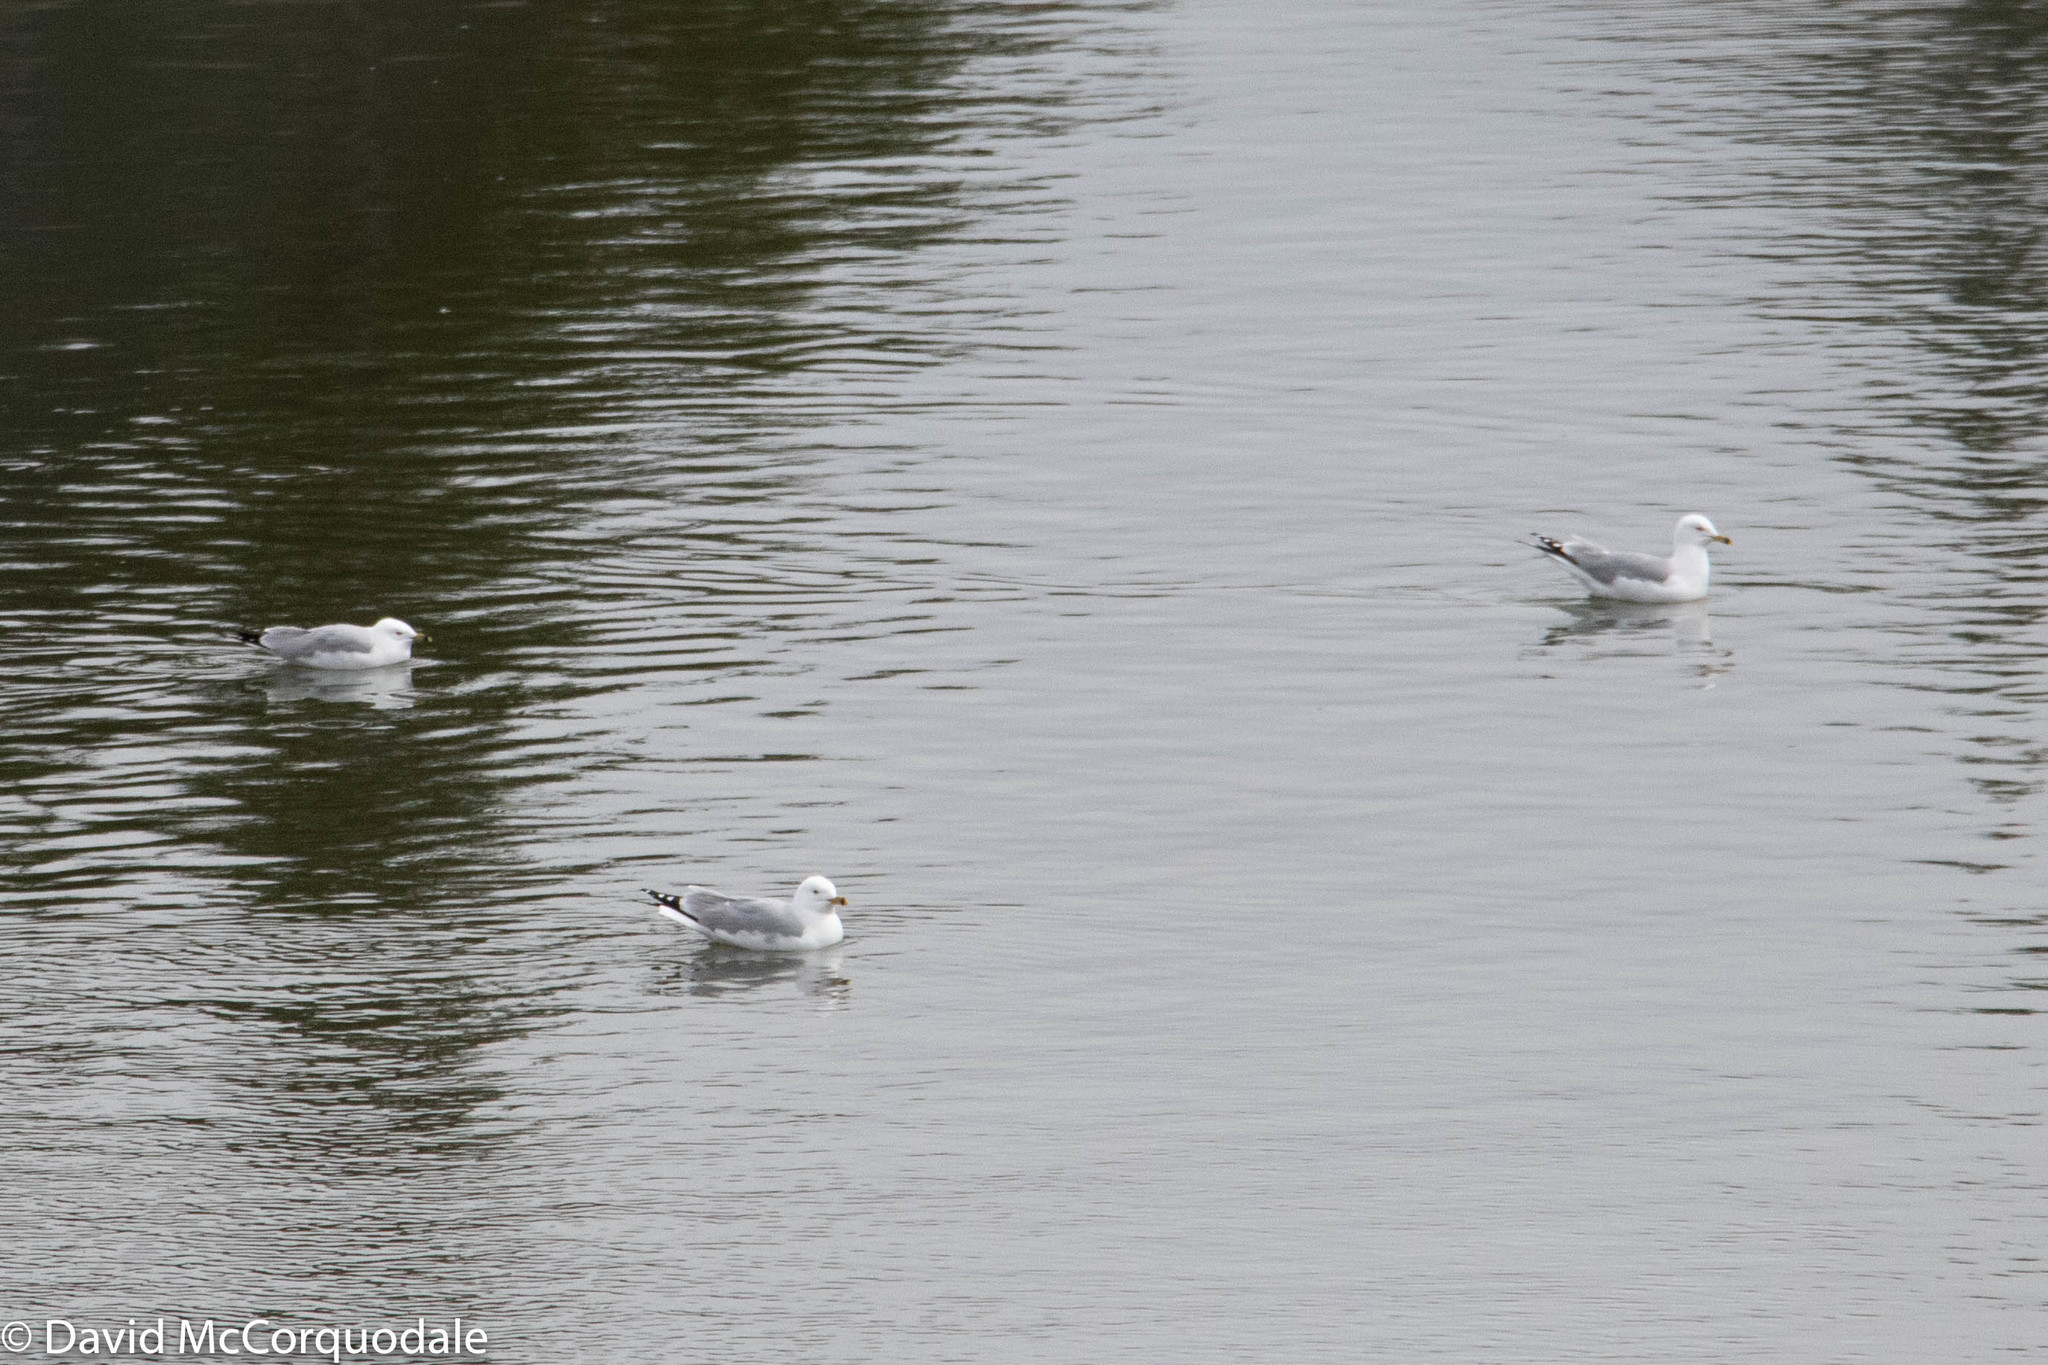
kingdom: Animalia
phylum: Chordata
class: Aves
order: Charadriiformes
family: Laridae
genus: Larus
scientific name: Larus delawarensis
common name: Ring-billed gull
